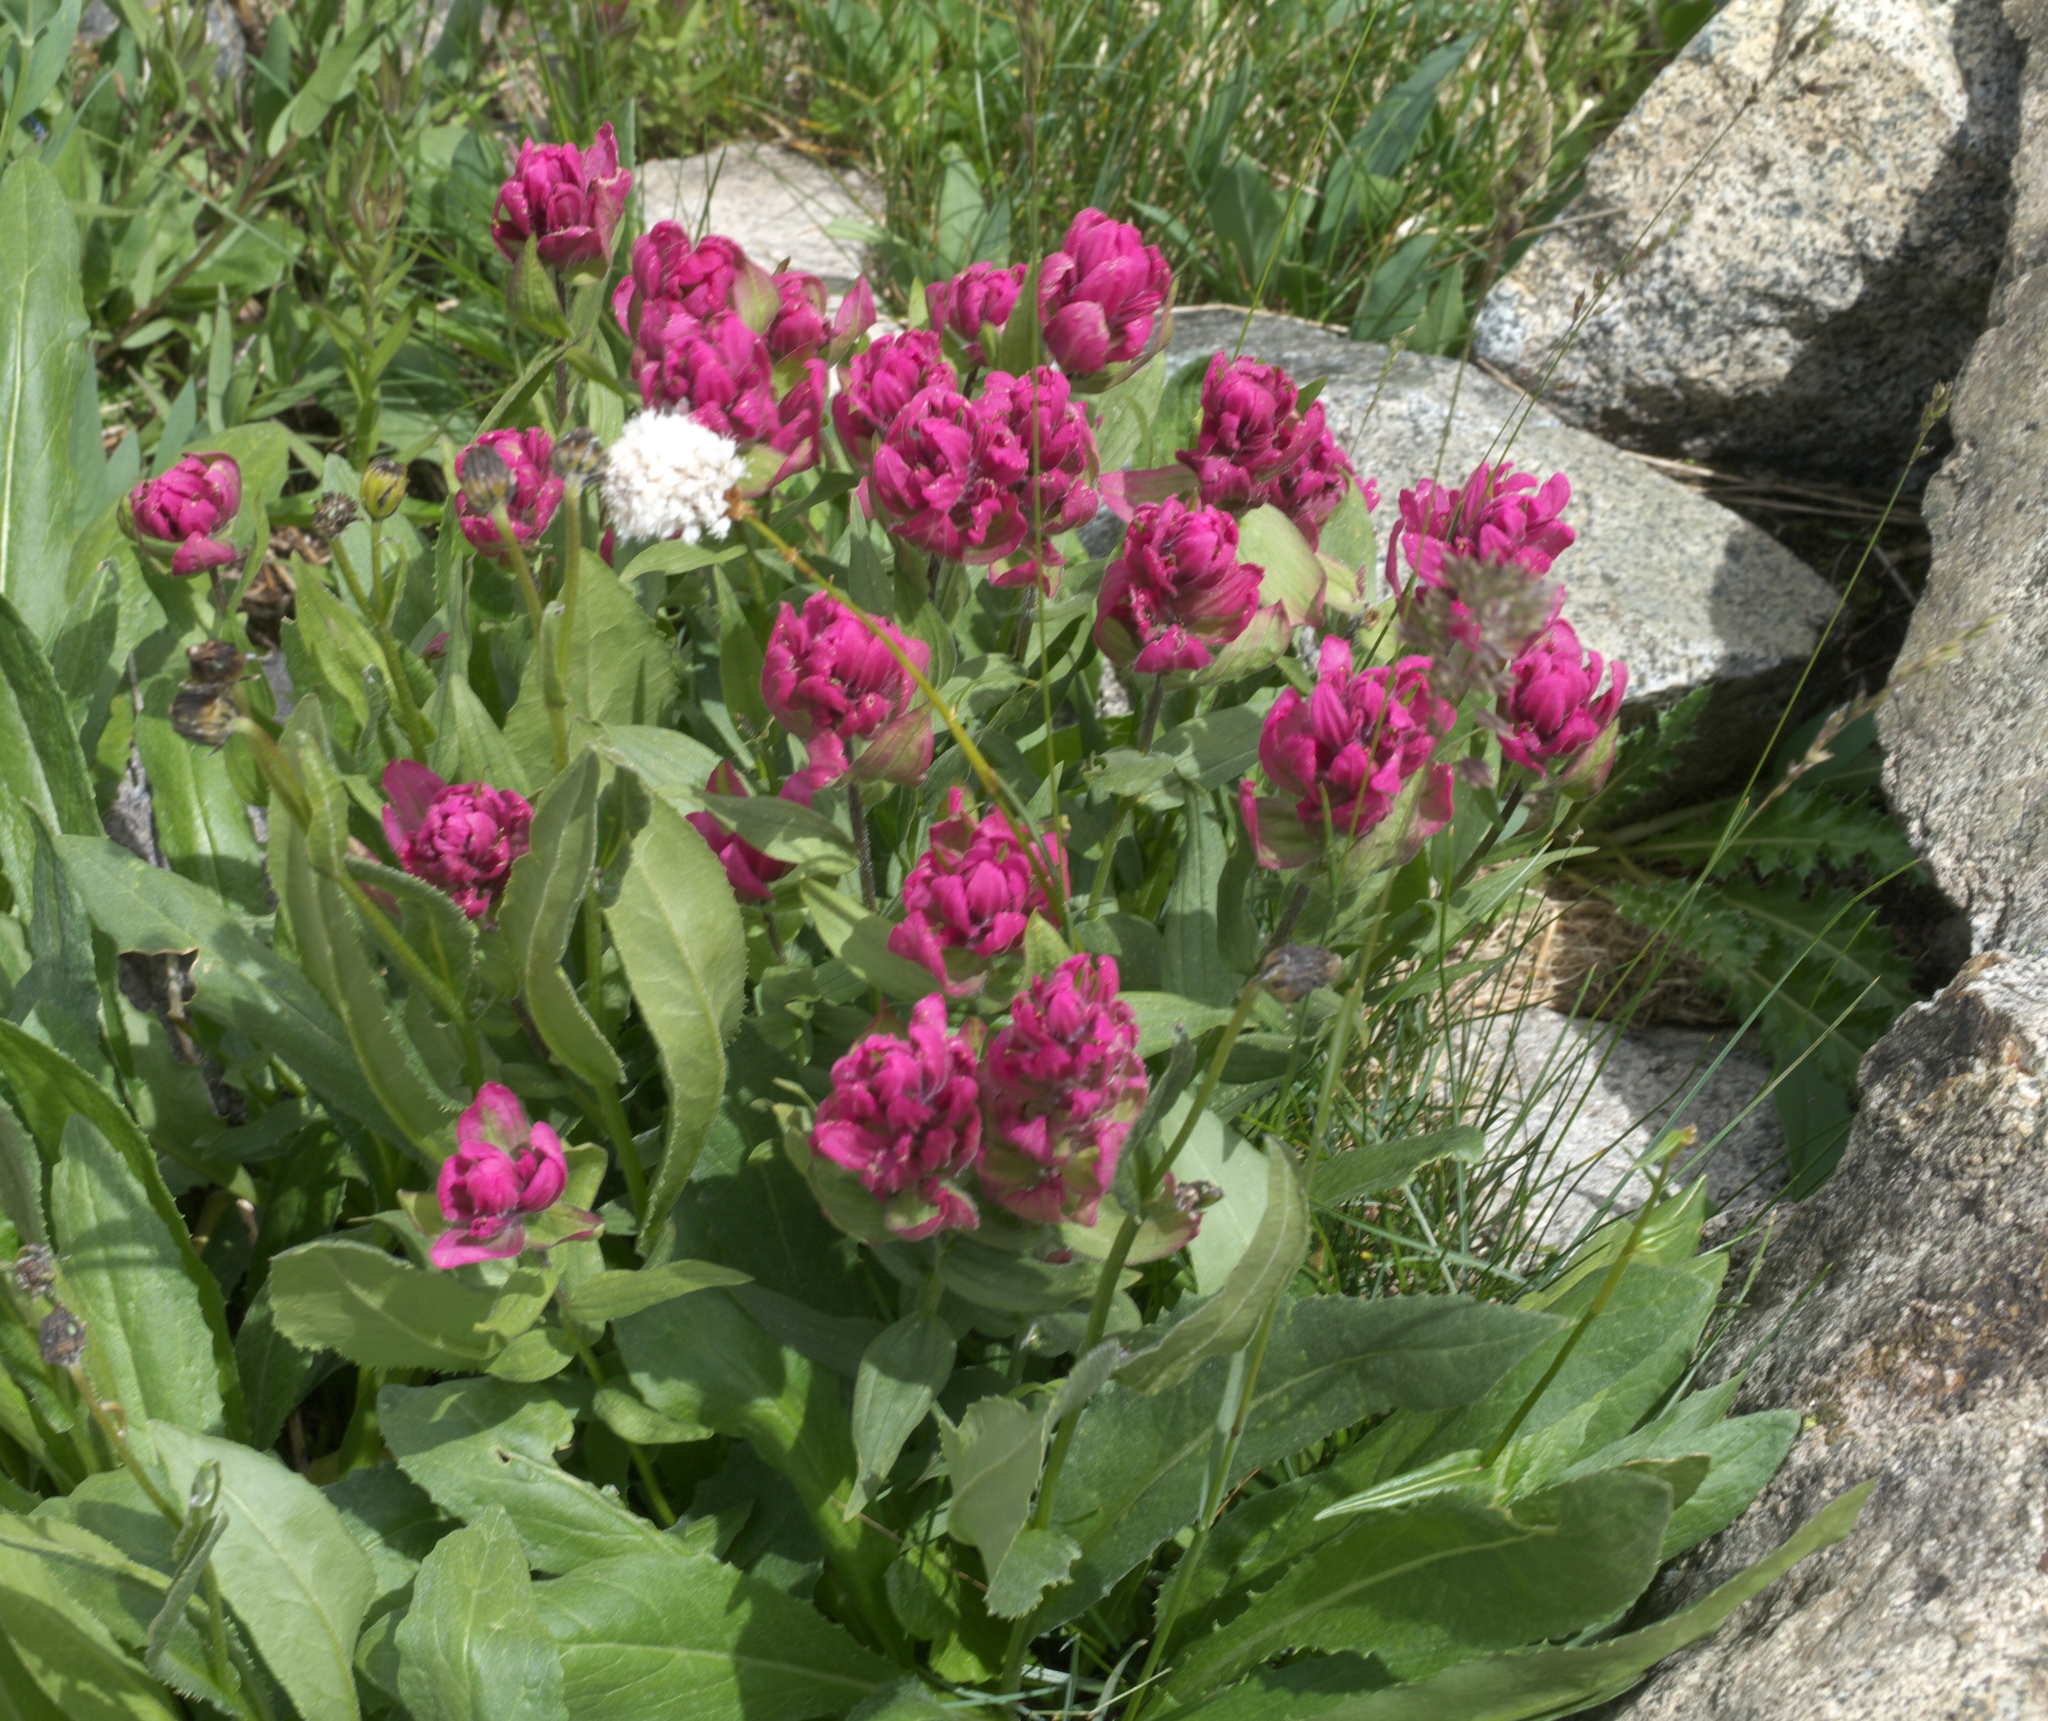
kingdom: Plantae
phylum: Tracheophyta
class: Magnoliopsida
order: Lamiales
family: Orobanchaceae
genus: Castilleja
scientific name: Castilleja rhexifolia
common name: Rocky mountain paintbrush
